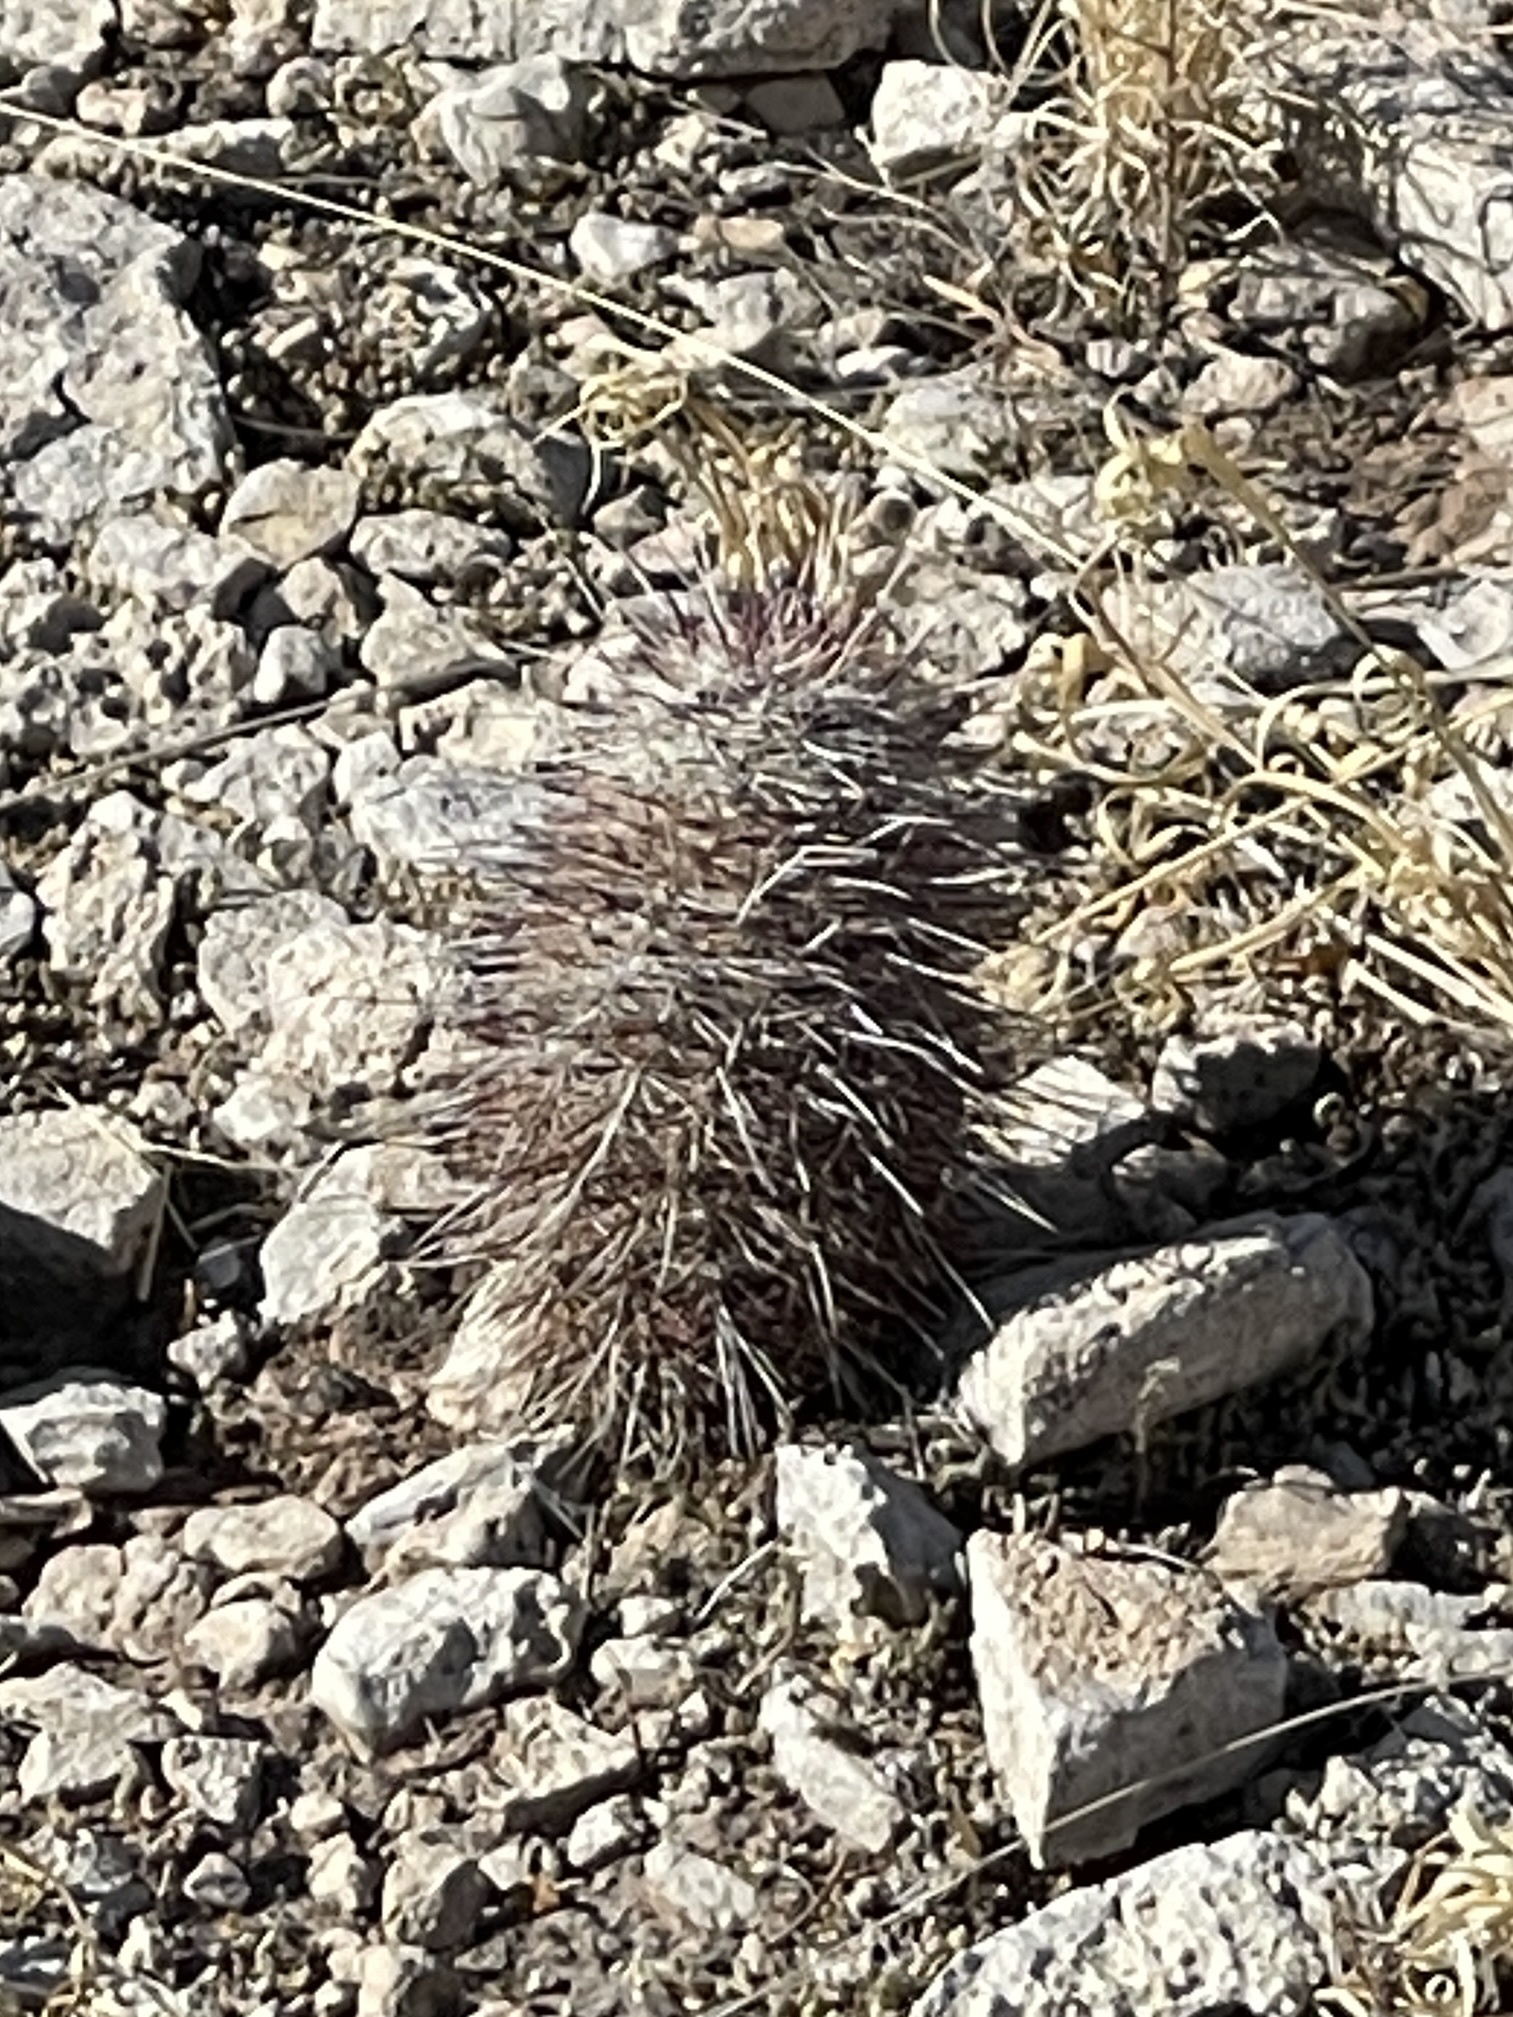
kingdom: Plantae
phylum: Tracheophyta
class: Magnoliopsida
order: Caryophyllales
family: Cactaceae
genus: Echinocereus
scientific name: Echinocereus viridiflorus
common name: Nylon hedgehog cactus
